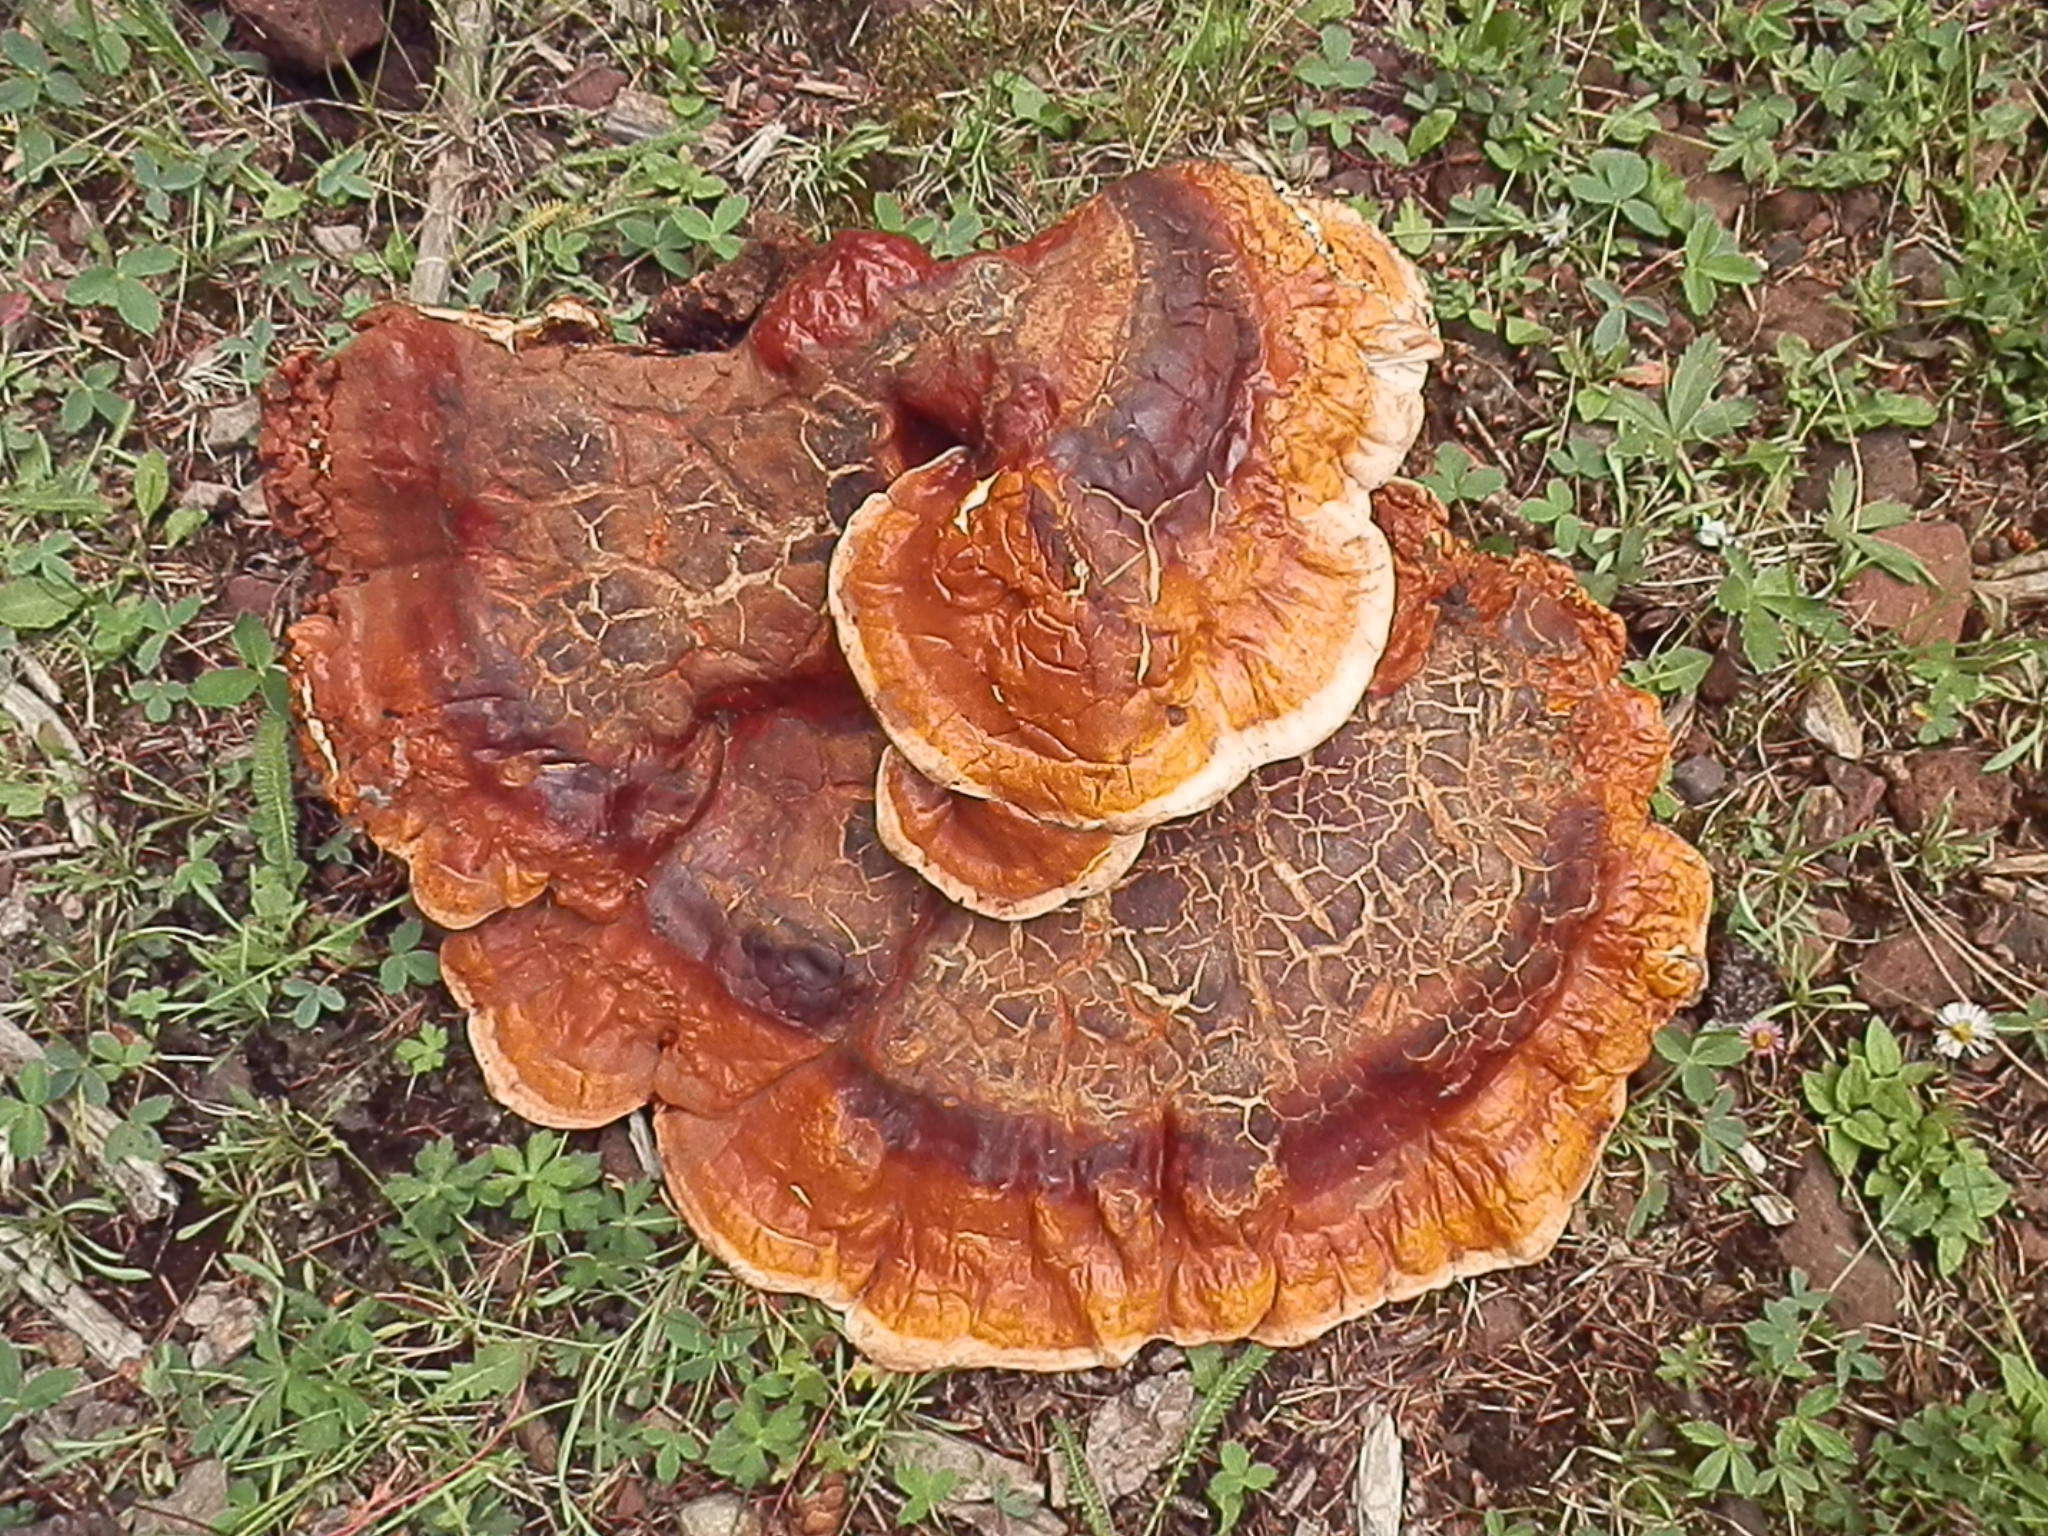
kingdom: Fungi
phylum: Basidiomycota
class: Agaricomycetes
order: Polyporales
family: Polyporaceae
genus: Ganoderma
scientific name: Ganoderma oregonense
